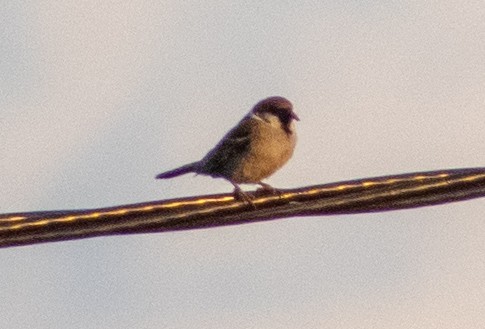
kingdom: Animalia
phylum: Chordata
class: Aves
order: Passeriformes
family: Passeridae
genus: Passer
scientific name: Passer montanus
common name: Eurasian tree sparrow
